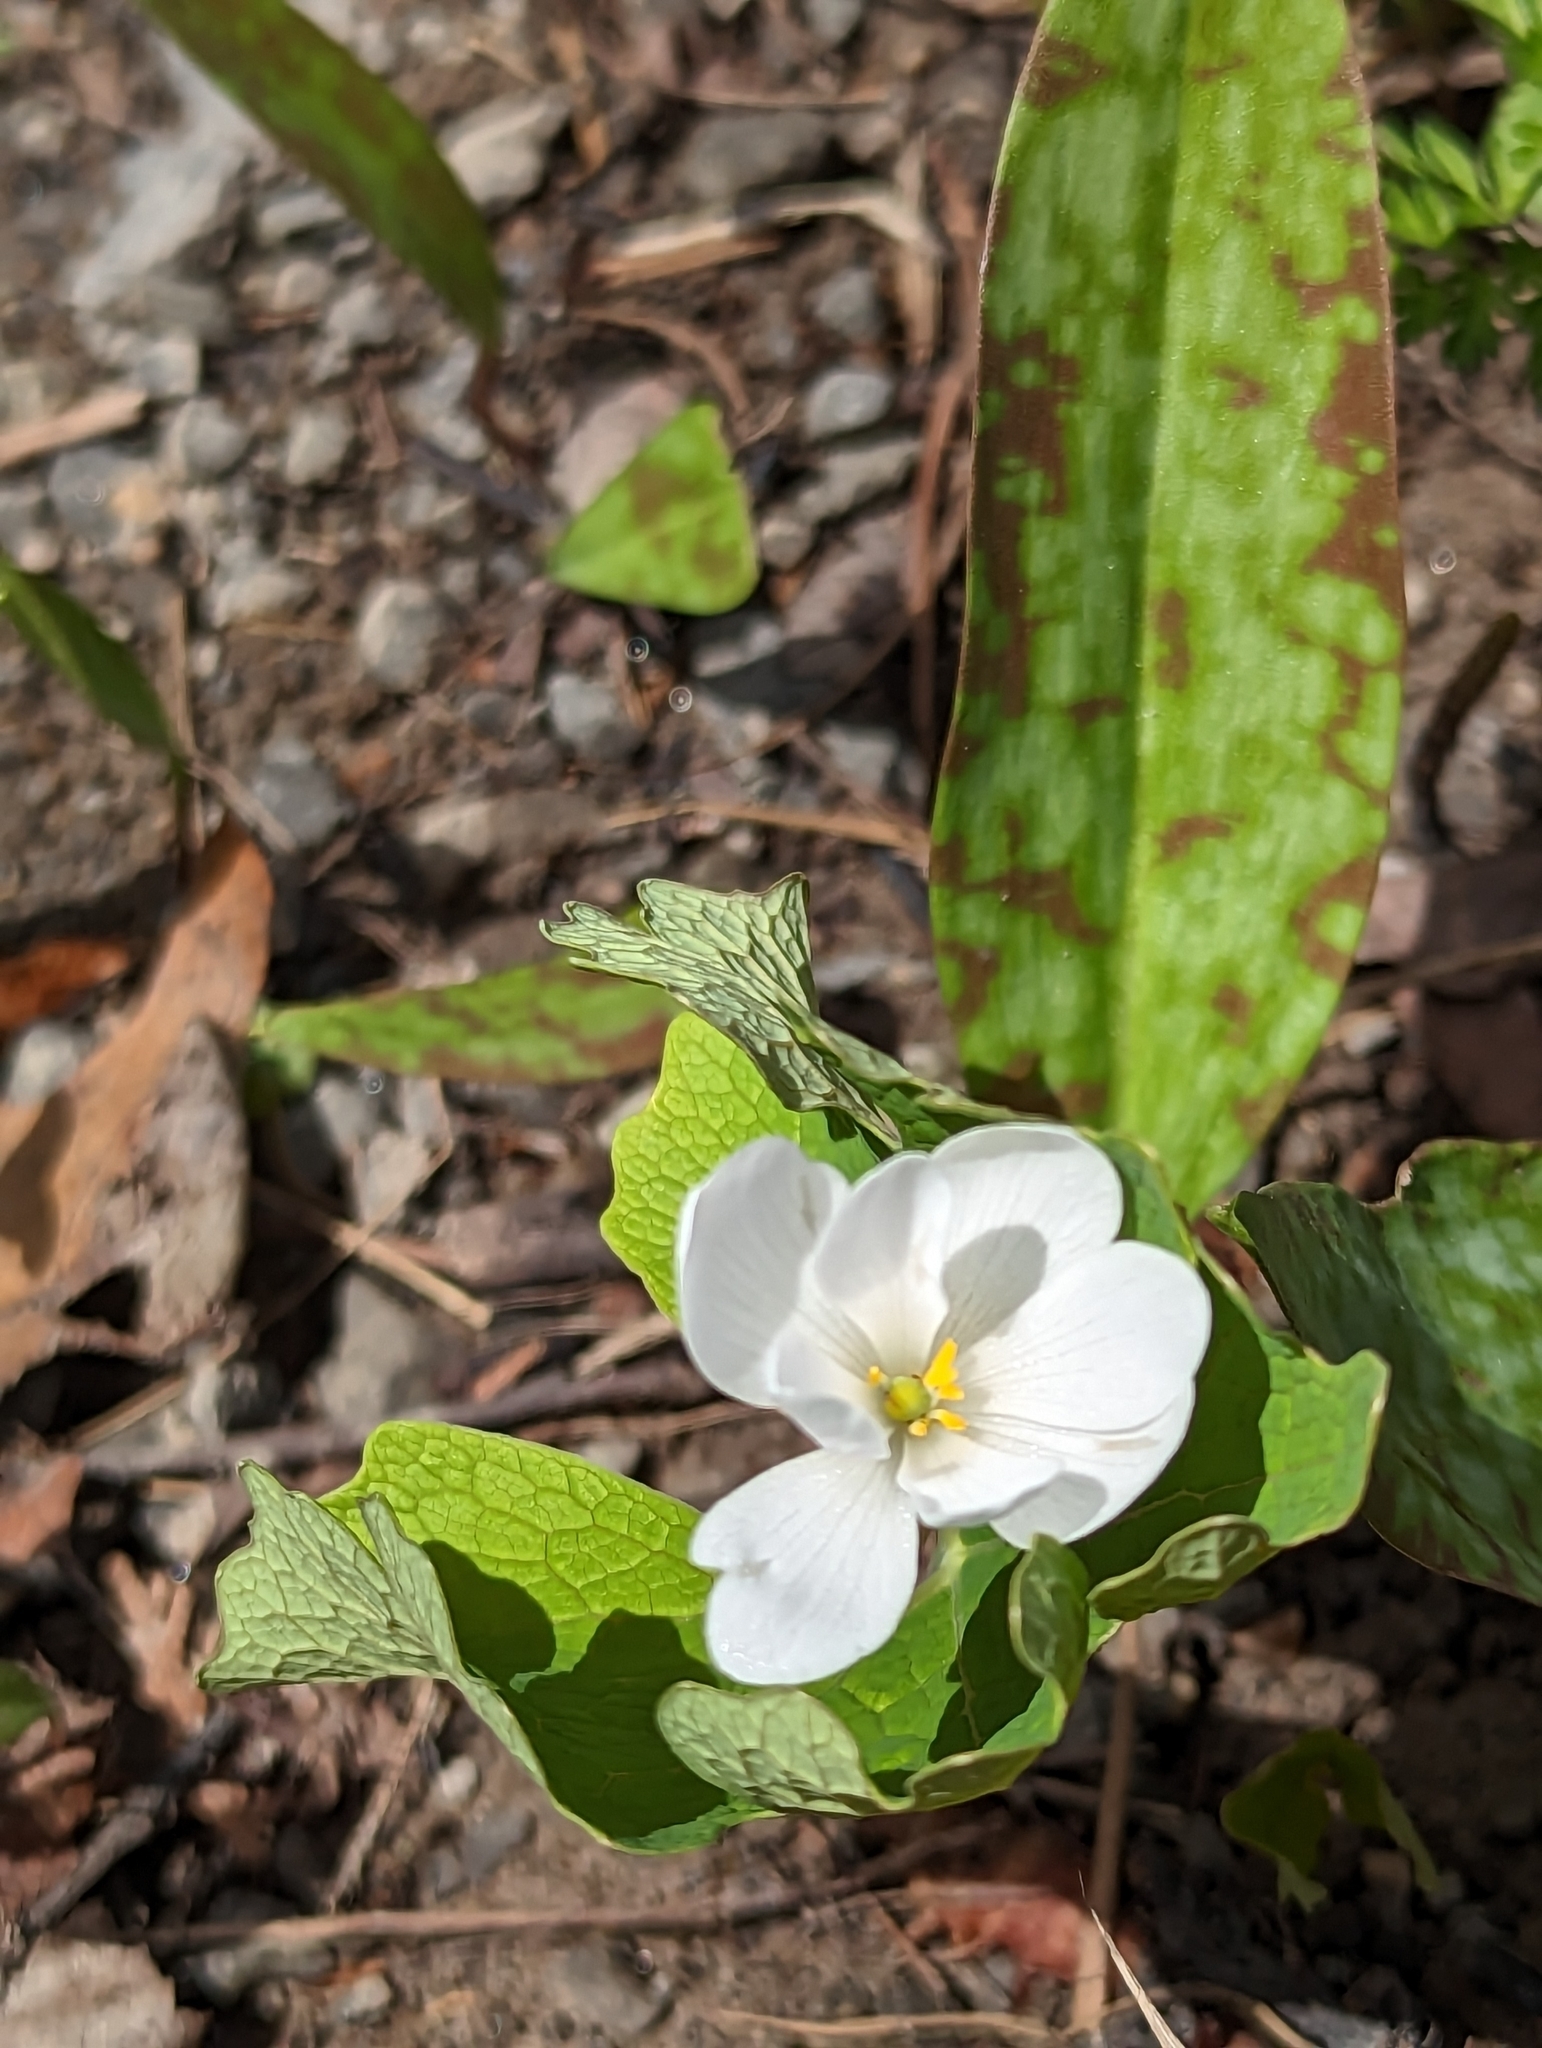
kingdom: Plantae
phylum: Tracheophyta
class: Magnoliopsida
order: Ranunculales
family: Papaveraceae
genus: Sanguinaria
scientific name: Sanguinaria canadensis
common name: Bloodroot
